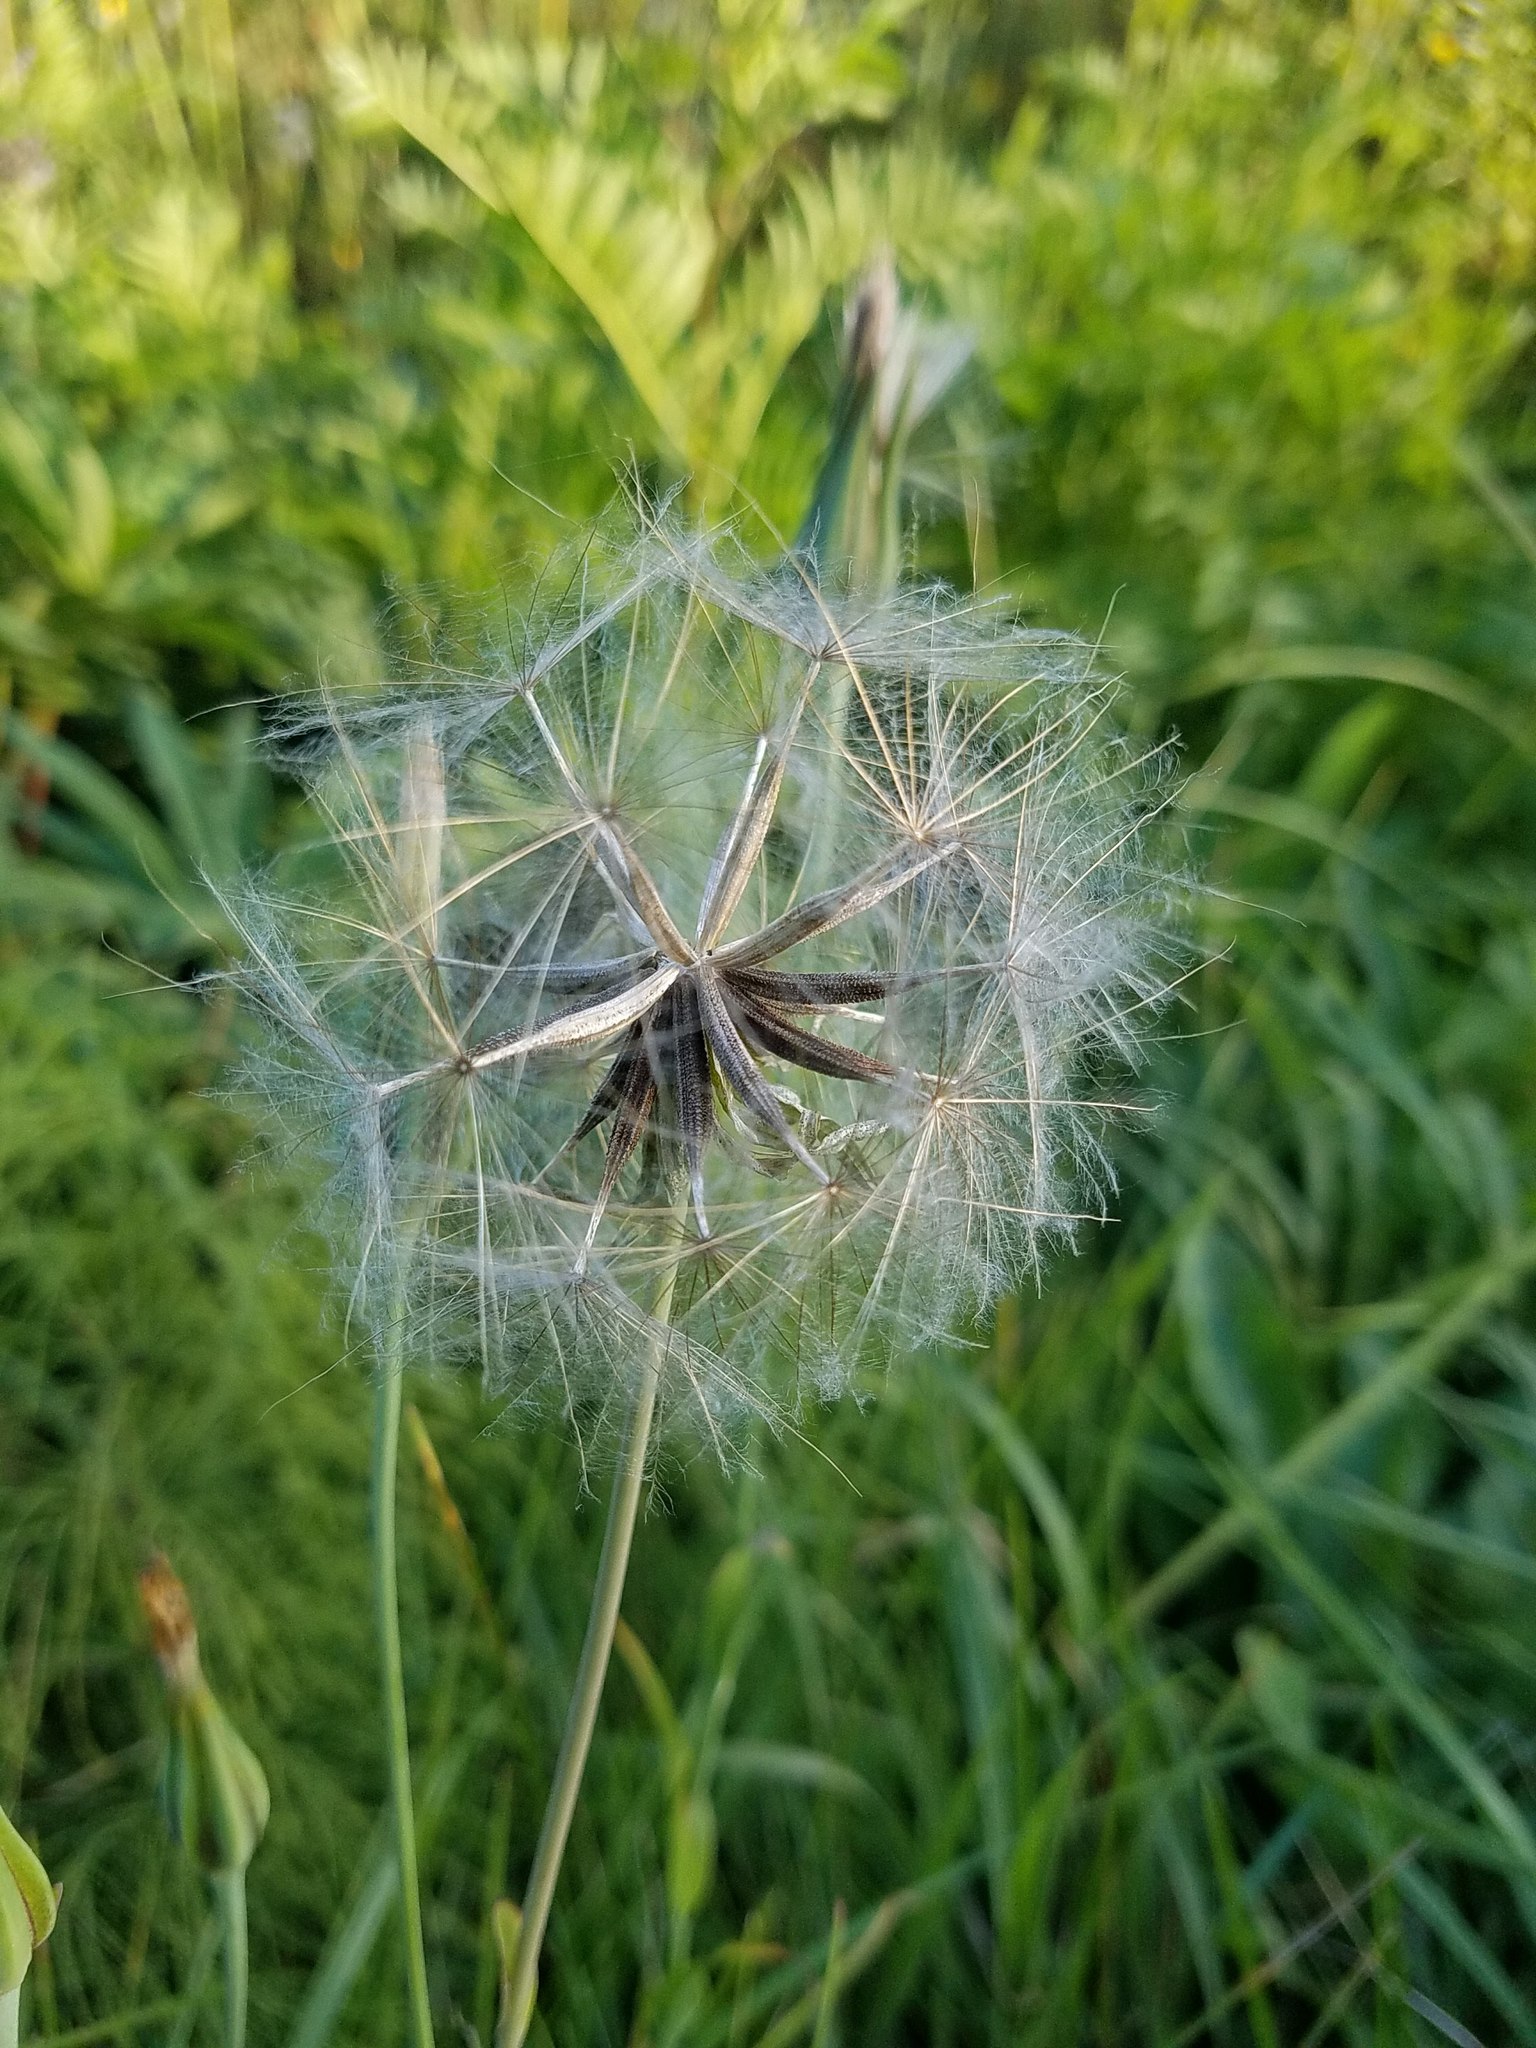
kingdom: Plantae
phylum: Tracheophyta
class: Magnoliopsida
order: Asterales
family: Asteraceae
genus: Tragopogon
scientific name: Tragopogon pratensis
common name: Goat's-beard
